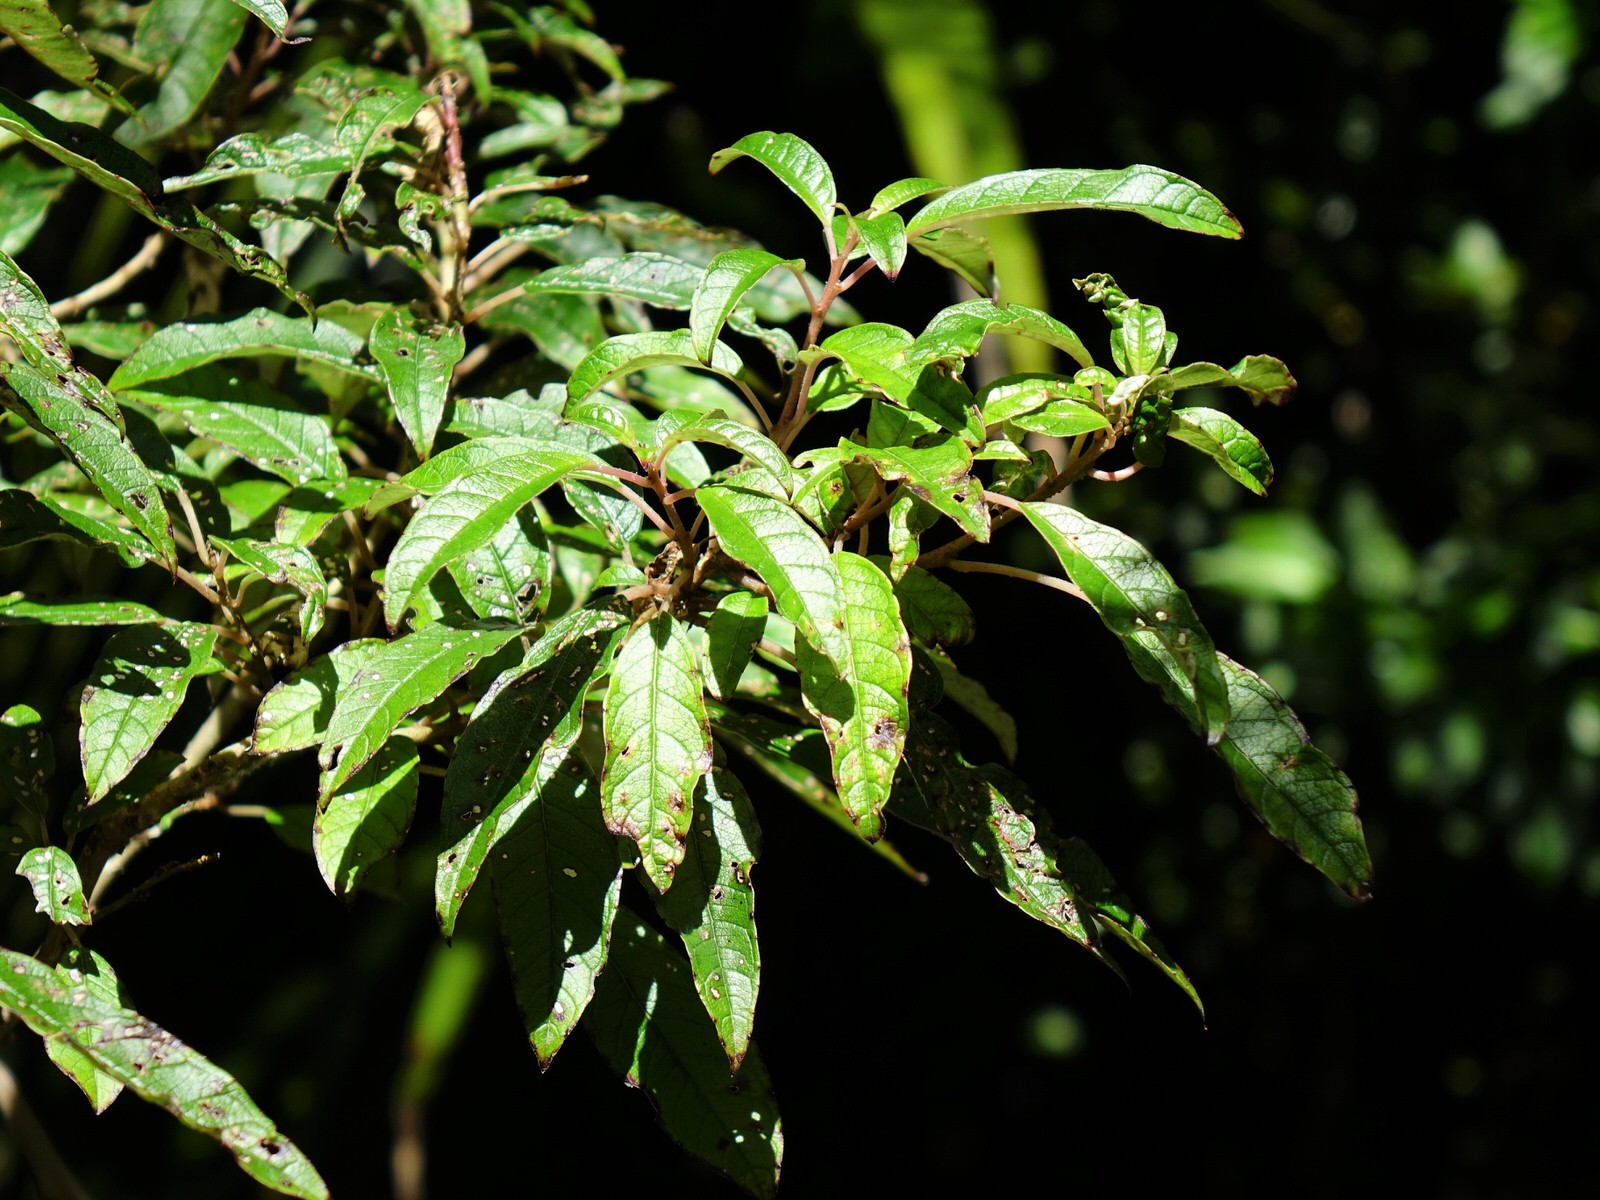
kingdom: Plantae
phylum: Tracheophyta
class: Magnoliopsida
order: Myrtales
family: Onagraceae
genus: Fuchsia
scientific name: Fuchsia excorticata
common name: Tree fuchsia
